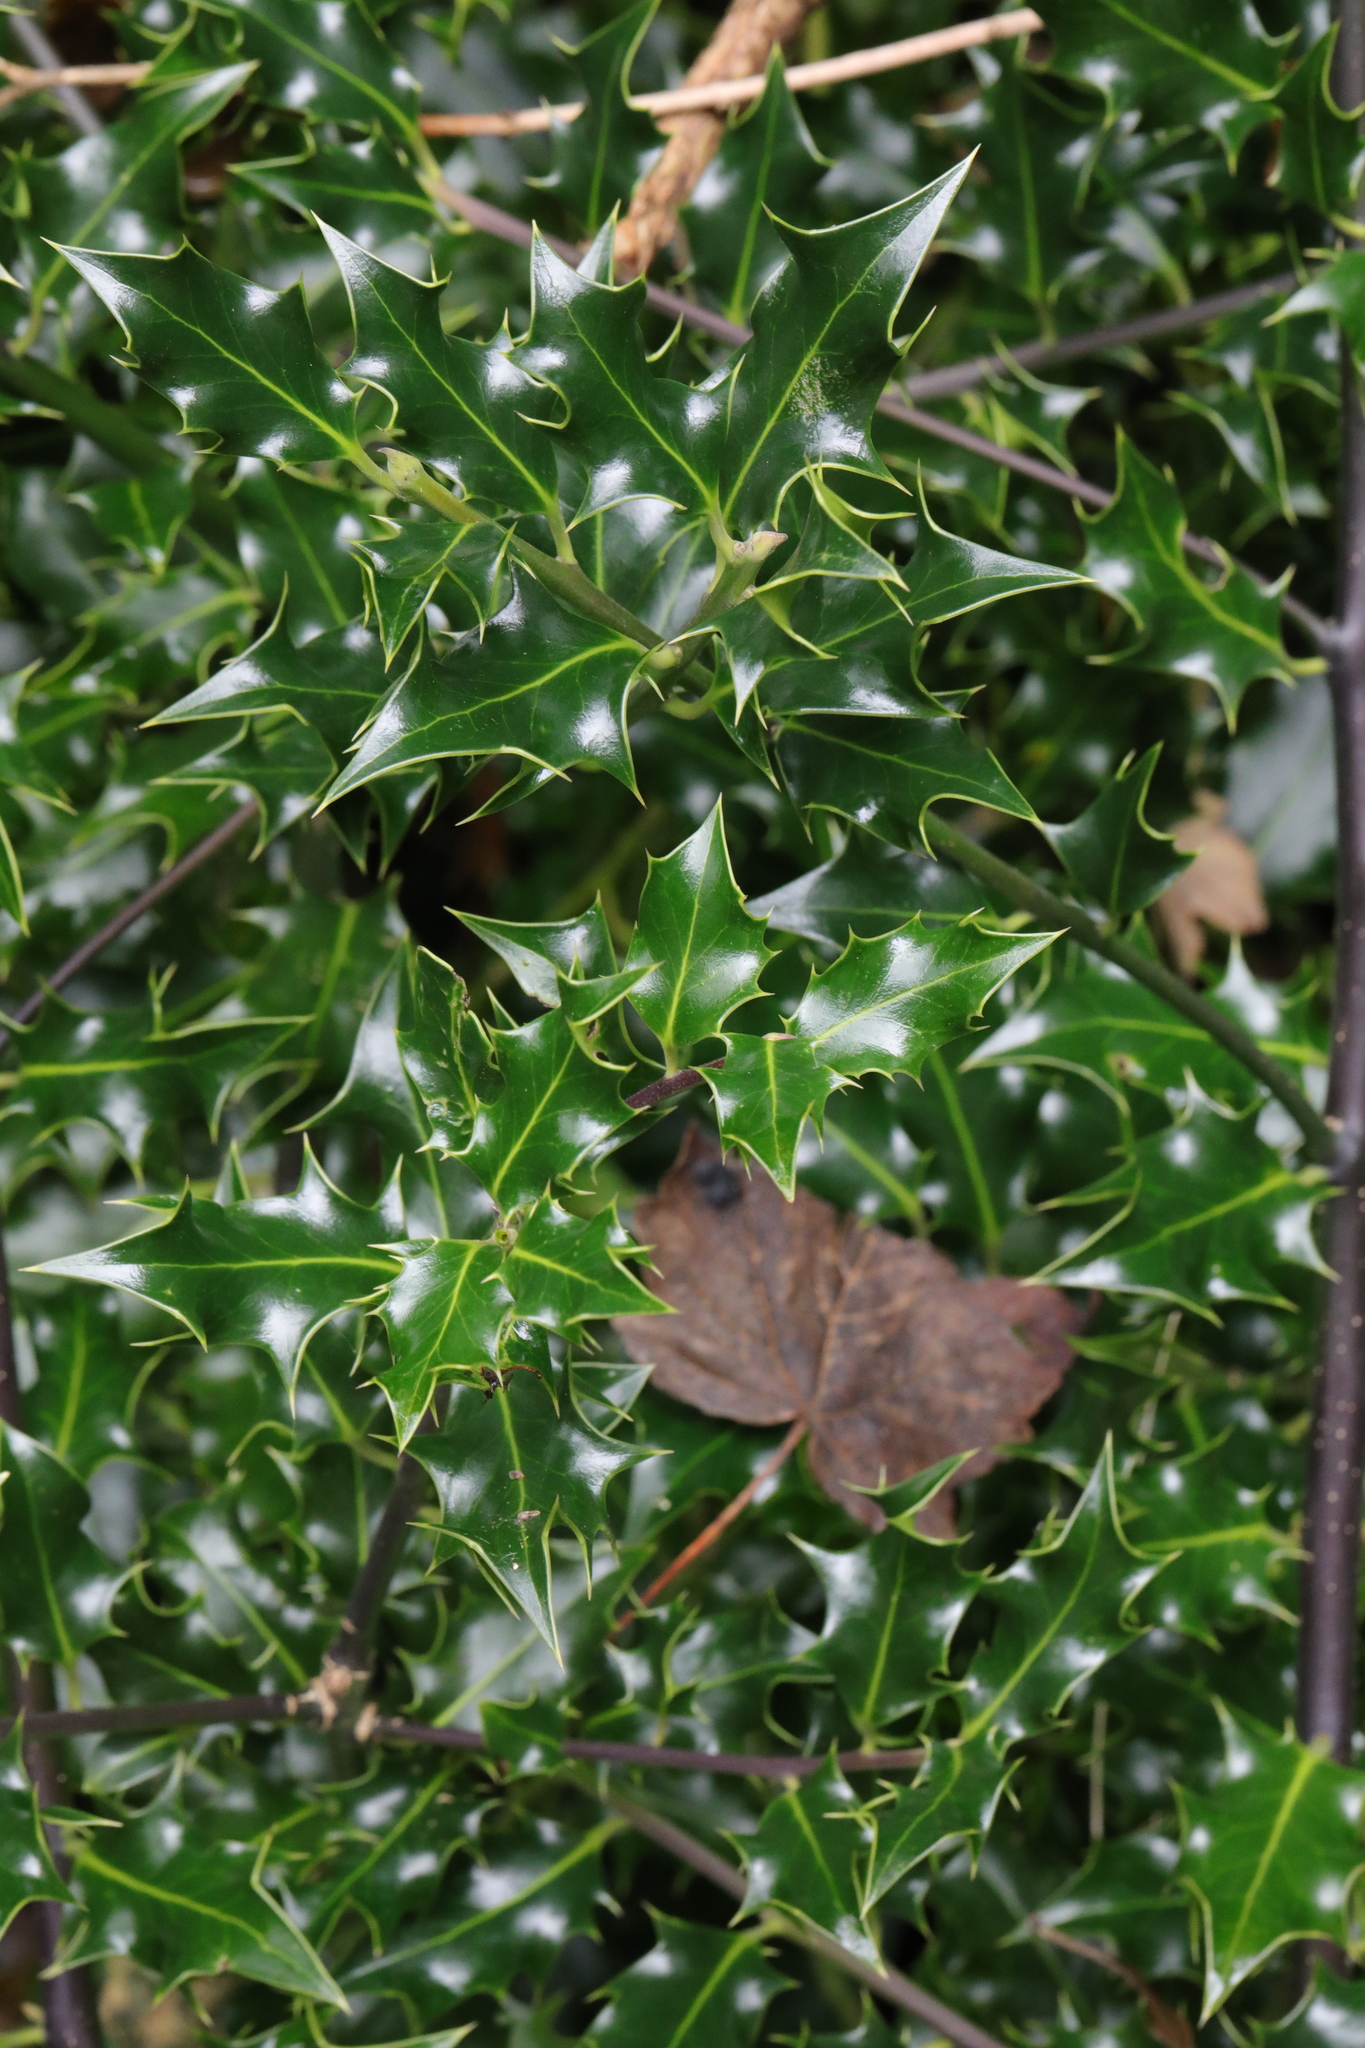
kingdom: Plantae
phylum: Tracheophyta
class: Magnoliopsida
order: Aquifoliales
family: Aquifoliaceae
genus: Ilex
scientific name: Ilex aquifolium
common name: English holly
